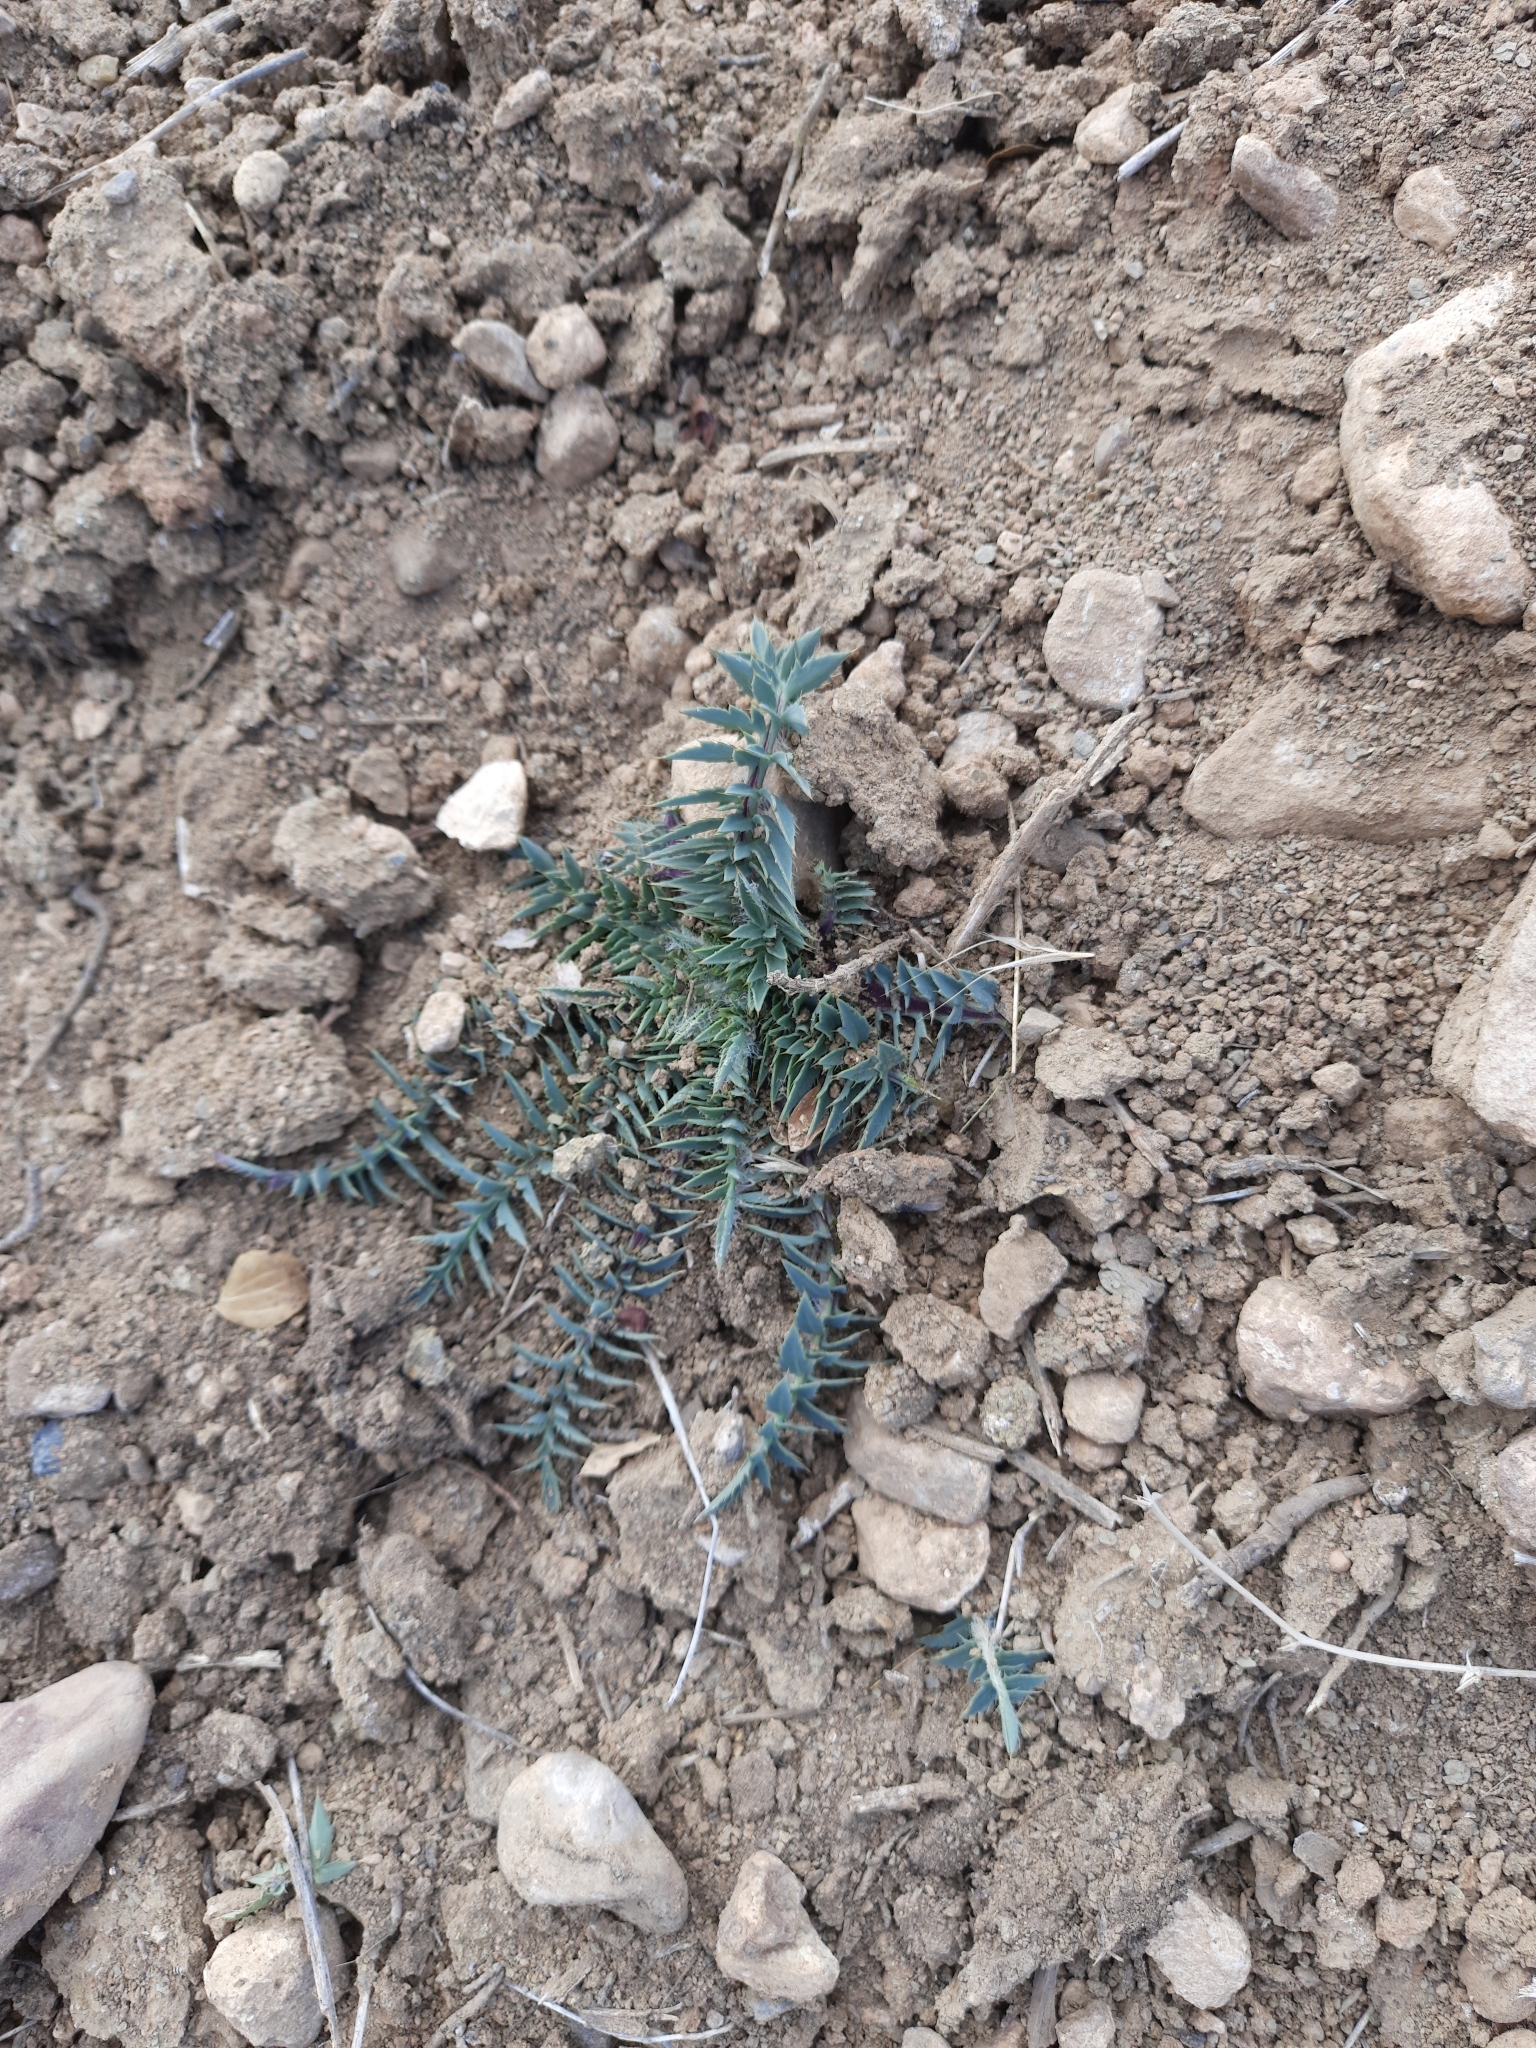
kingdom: Plantae
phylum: Tracheophyta
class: Magnoliopsida
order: Asterales
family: Asteraceae
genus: Carduncellus
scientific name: Carduncellus
